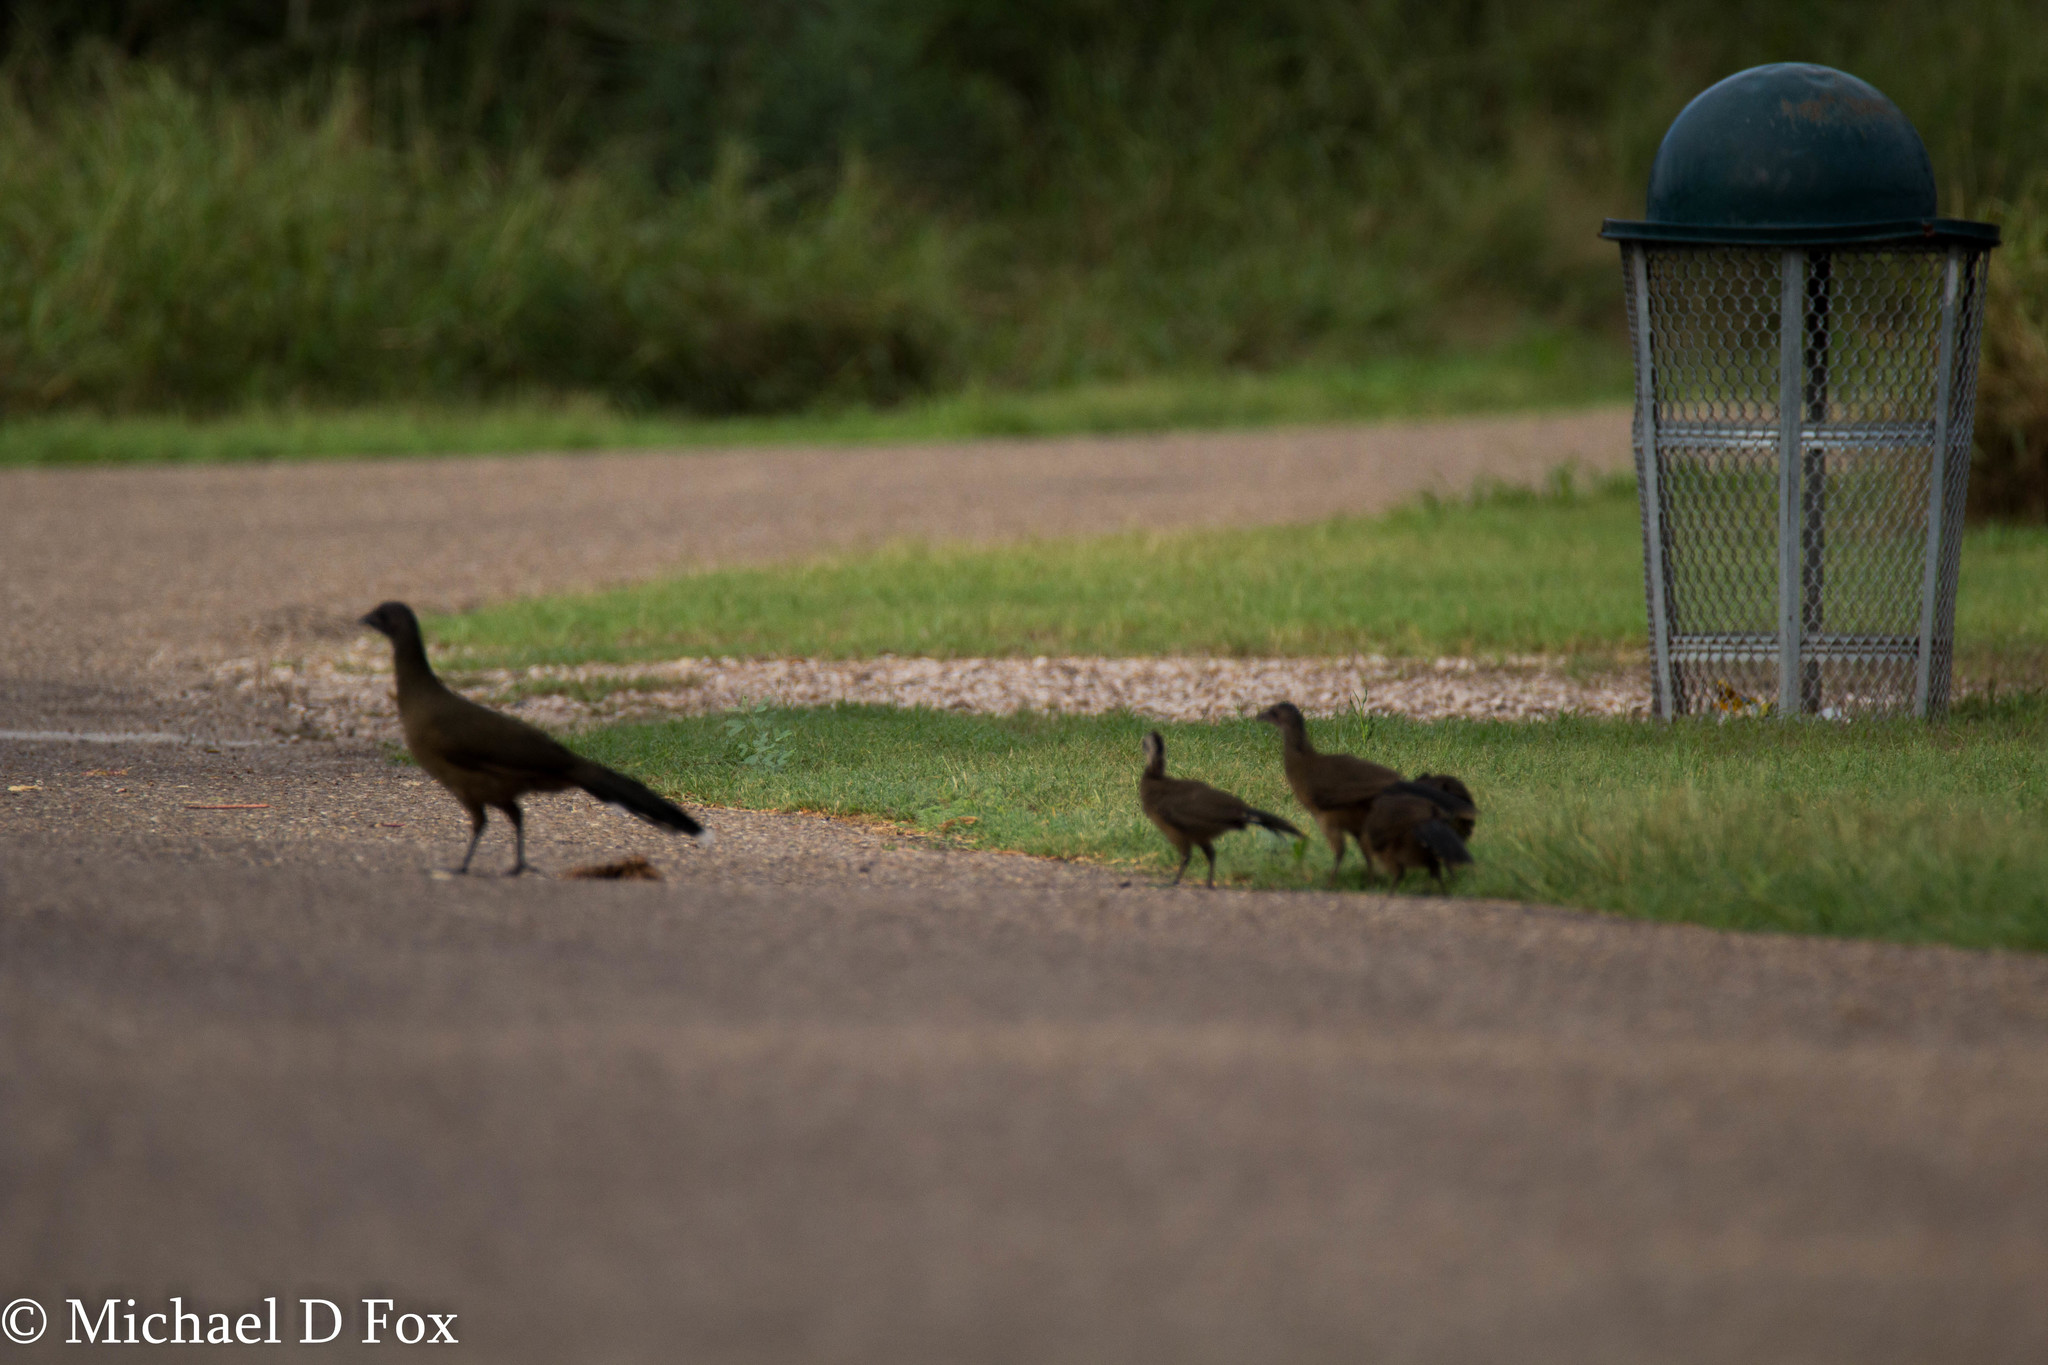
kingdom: Animalia
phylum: Chordata
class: Aves
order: Galliformes
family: Cracidae
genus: Ortalis
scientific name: Ortalis vetula
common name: Plain chachalaca
